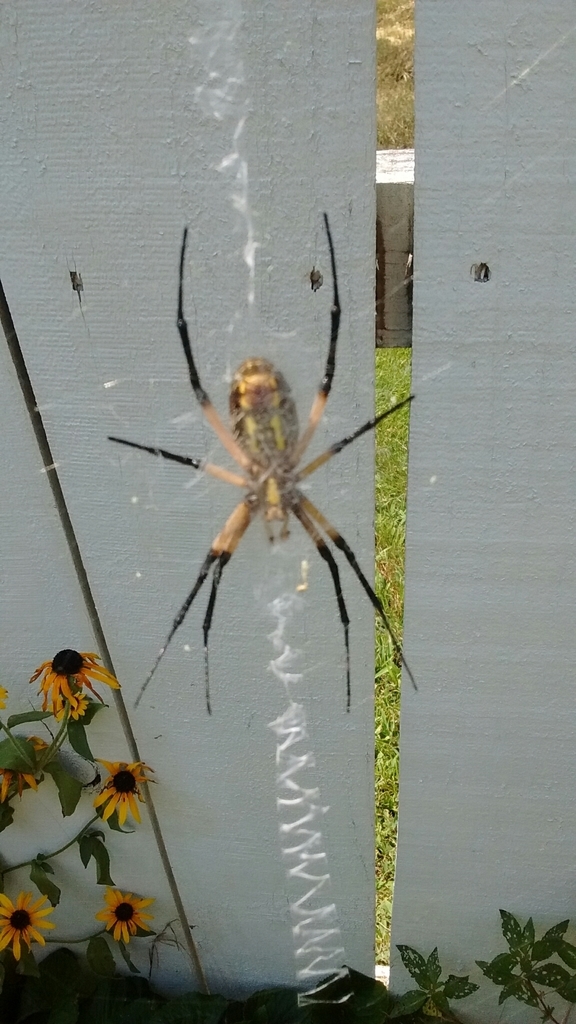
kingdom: Animalia
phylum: Arthropoda
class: Arachnida
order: Araneae
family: Araneidae
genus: Argiope
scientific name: Argiope aurantia
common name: Orb weavers
